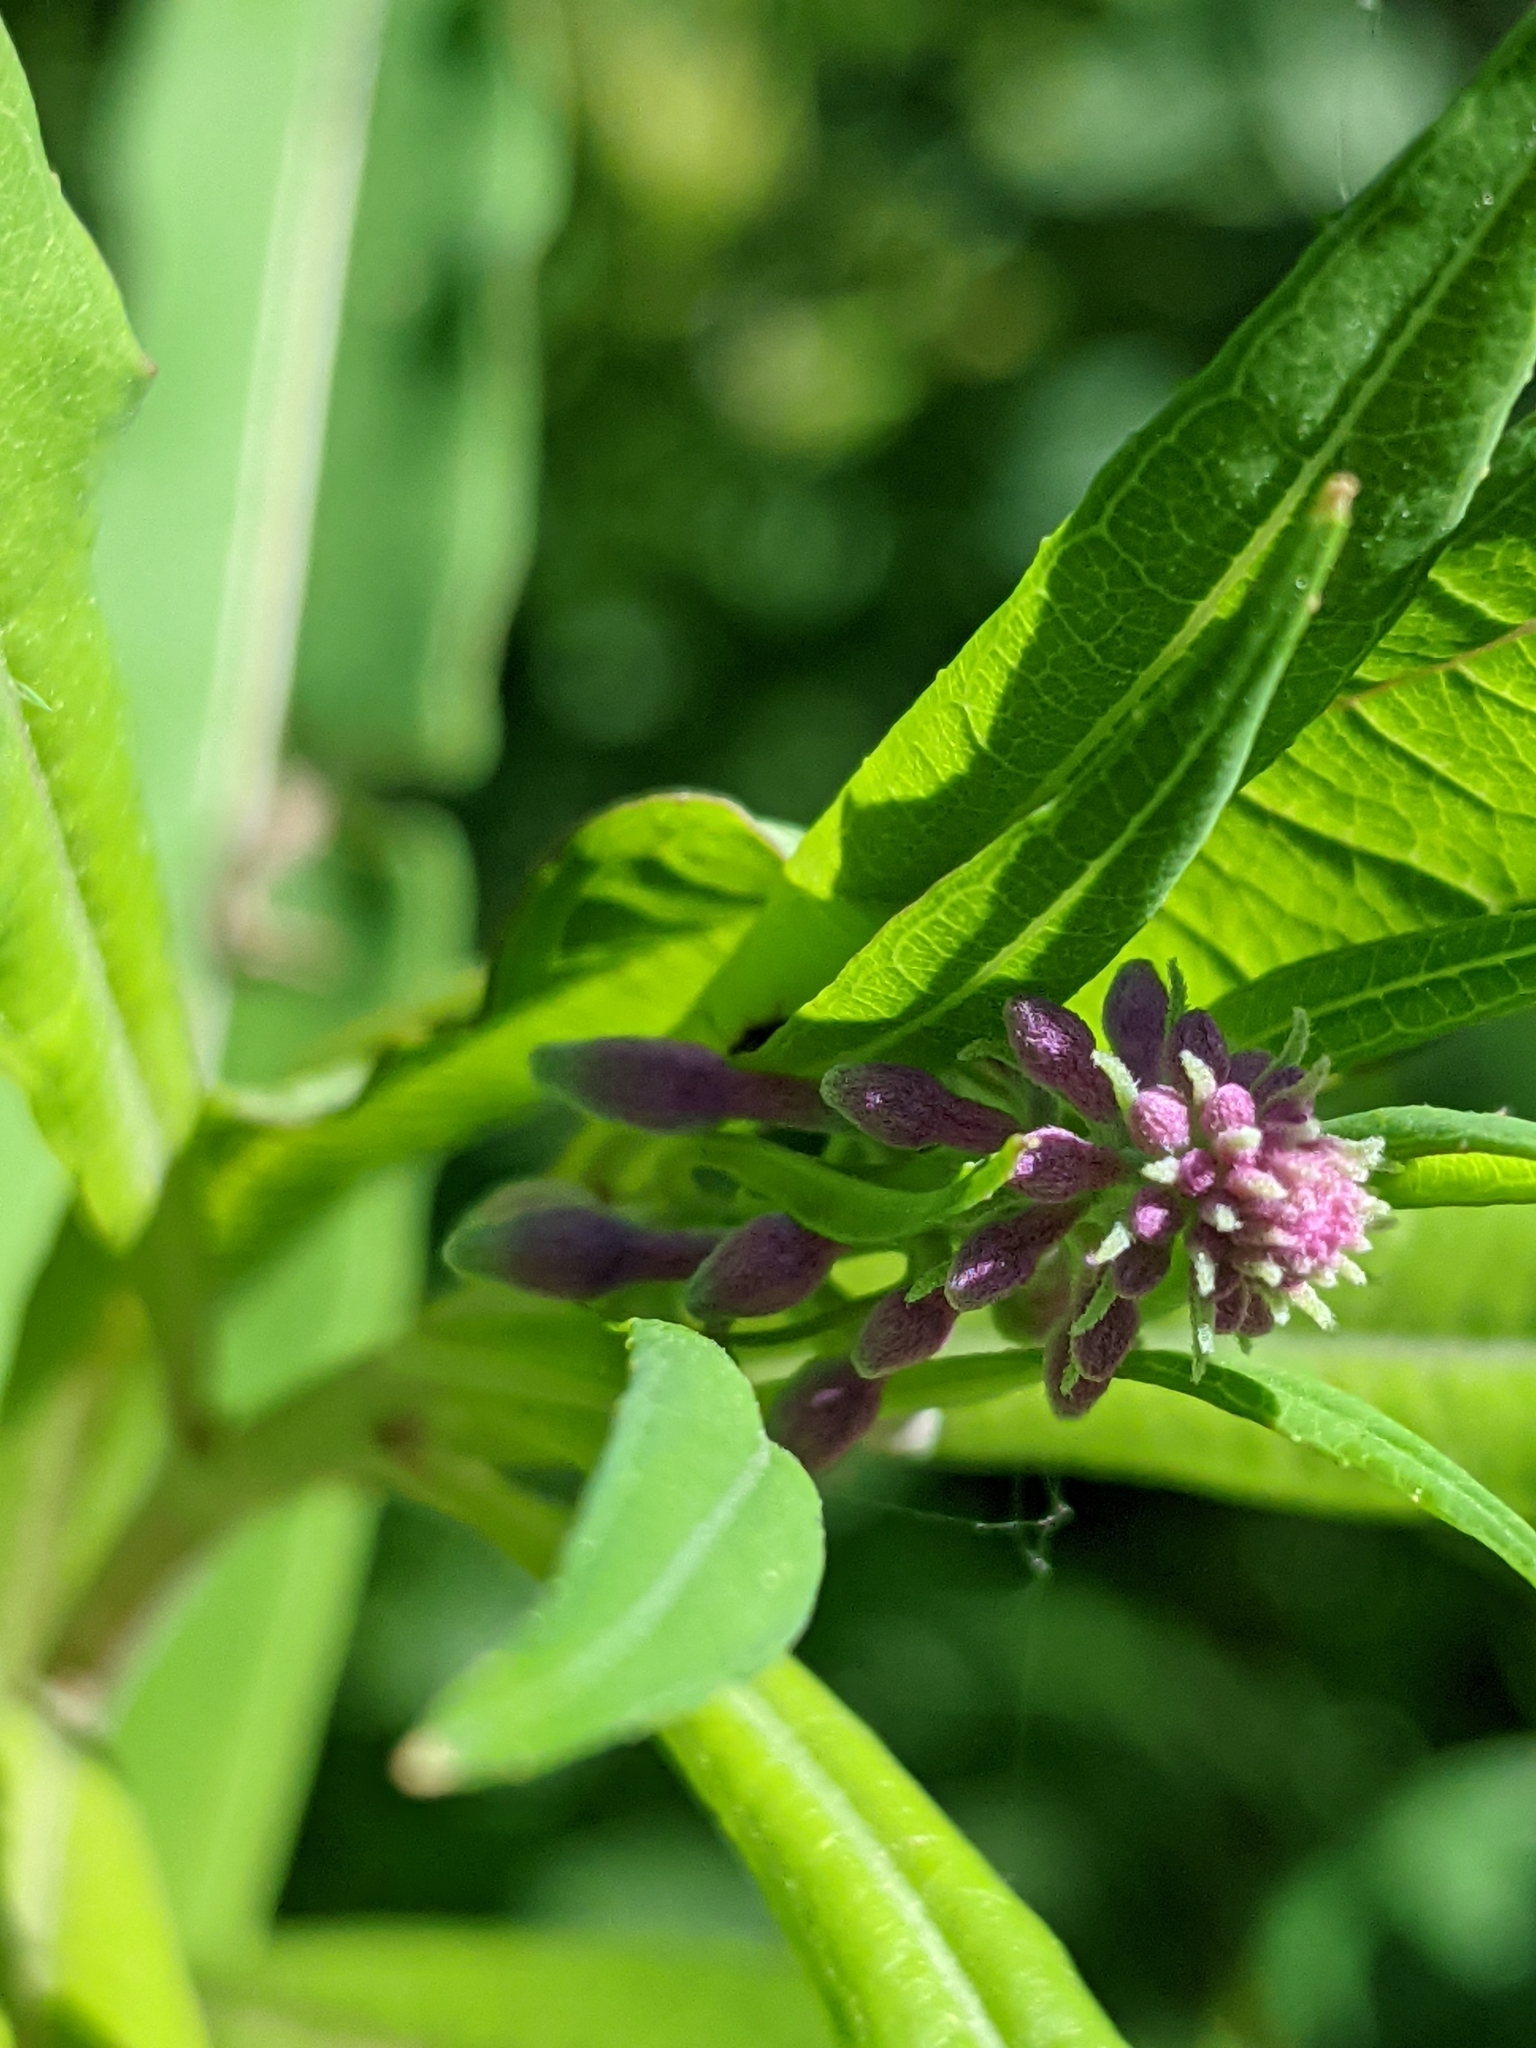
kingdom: Plantae
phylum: Tracheophyta
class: Magnoliopsida
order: Myrtales
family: Onagraceae
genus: Chamaenerion
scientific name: Chamaenerion angustifolium
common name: Fireweed
